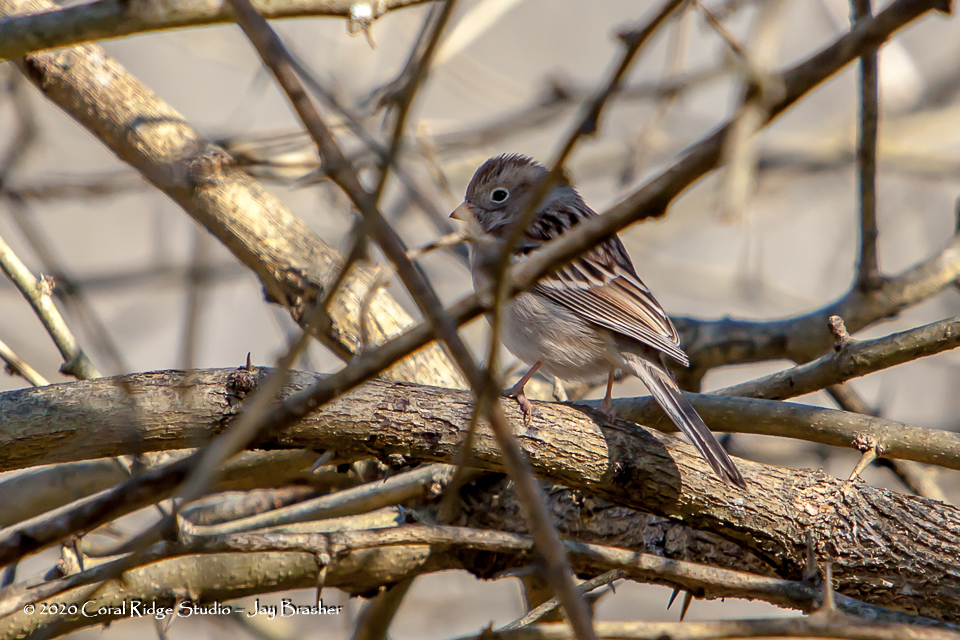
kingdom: Animalia
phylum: Chordata
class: Aves
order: Passeriformes
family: Passerellidae
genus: Spizella
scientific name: Spizella pusilla
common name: Field sparrow
